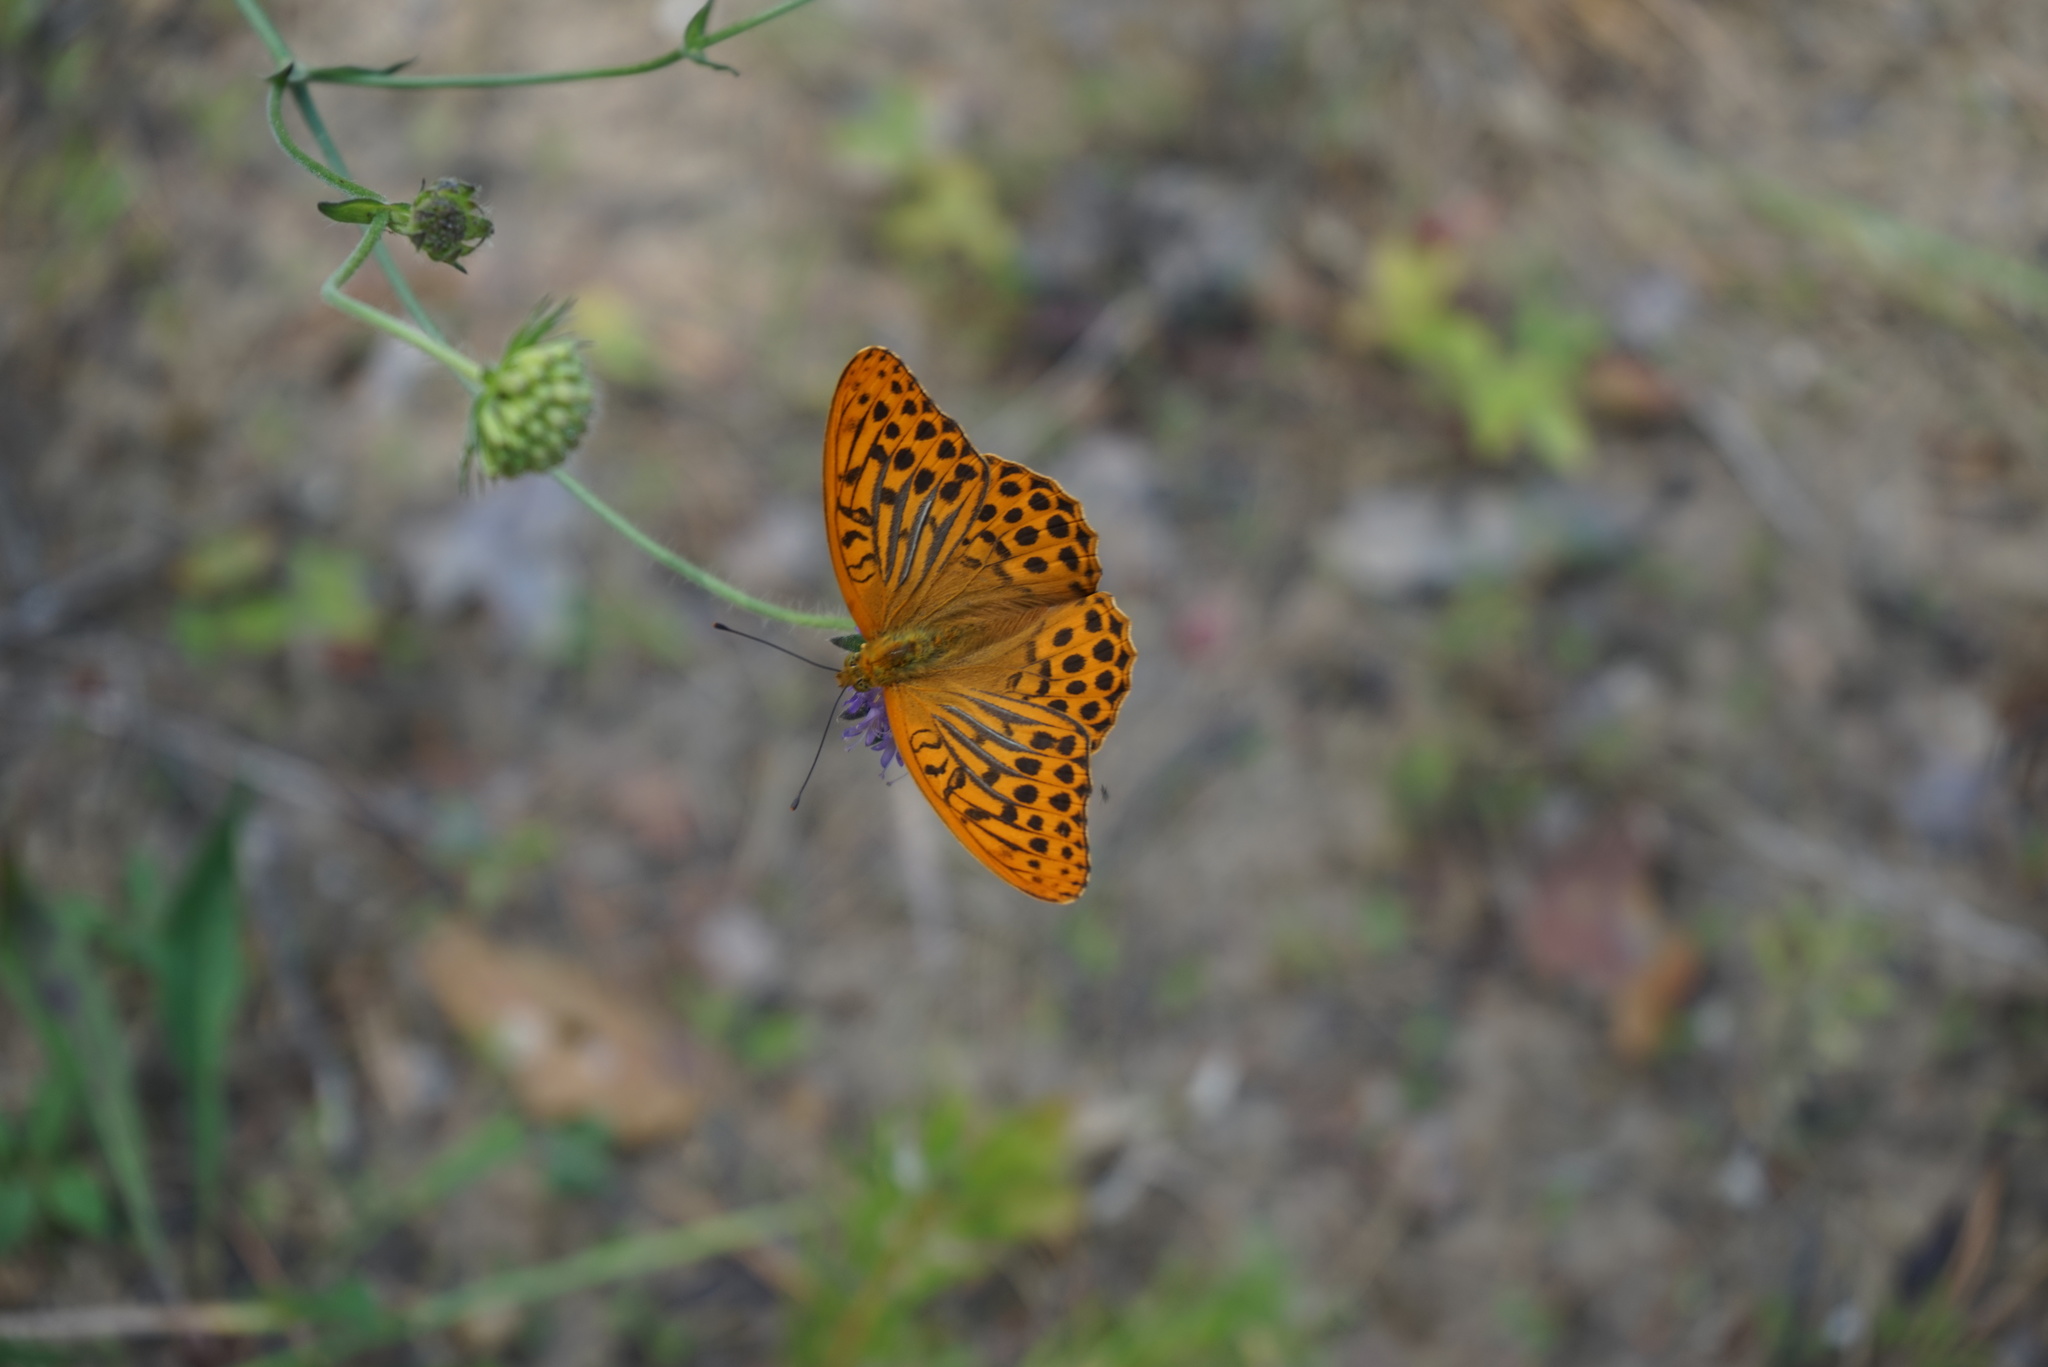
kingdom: Animalia
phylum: Arthropoda
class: Insecta
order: Lepidoptera
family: Nymphalidae
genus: Argynnis
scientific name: Argynnis paphia
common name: Silver-washed fritillary
